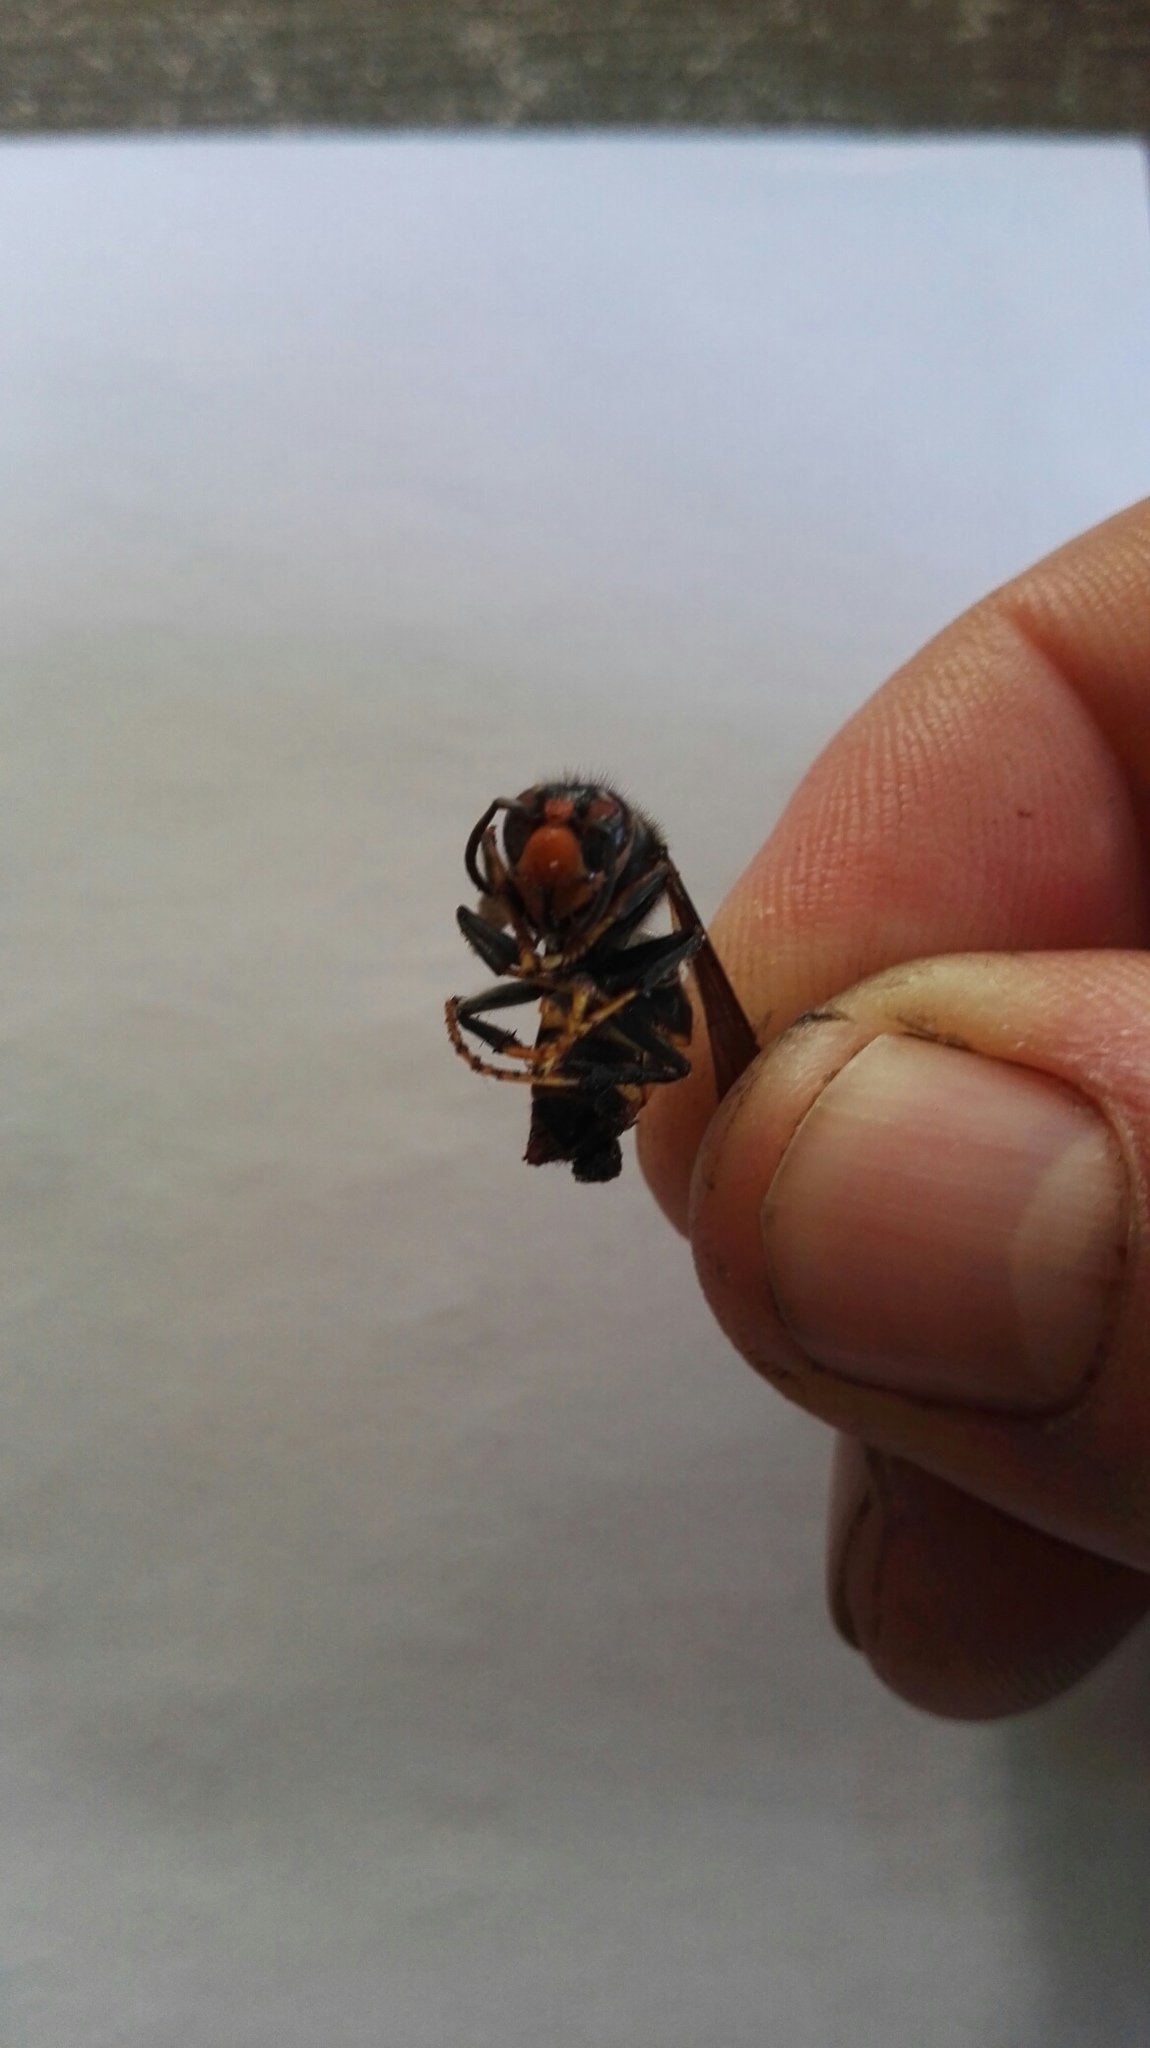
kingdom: Animalia
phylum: Arthropoda
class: Insecta
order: Hymenoptera
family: Vespidae
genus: Vespa
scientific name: Vespa velutina
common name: Asian hornet
